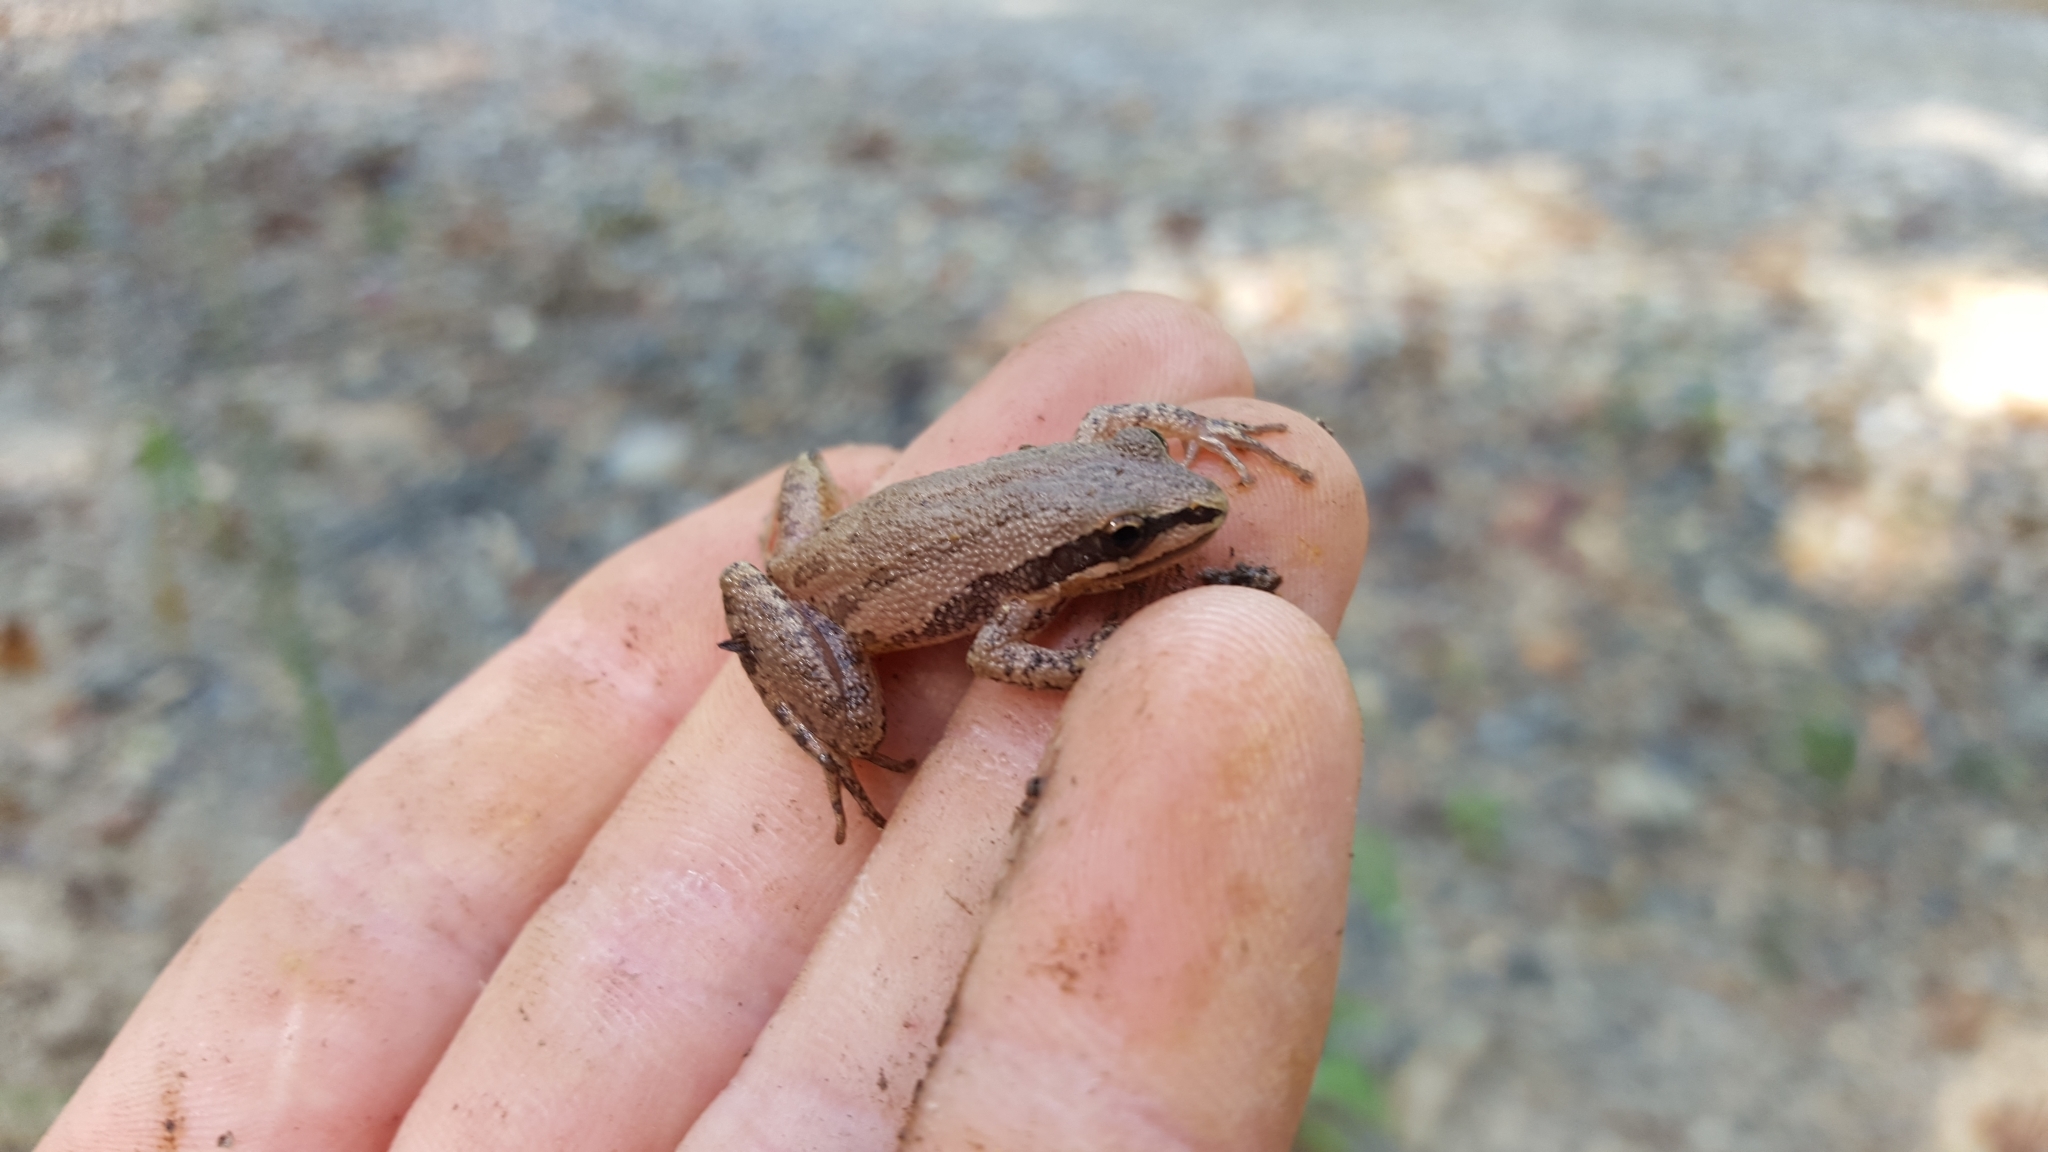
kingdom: Animalia
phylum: Chordata
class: Amphibia
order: Anura
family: Hylidae
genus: Pseudacris
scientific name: Pseudacris fouquettei
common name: Cajun chorus frog
